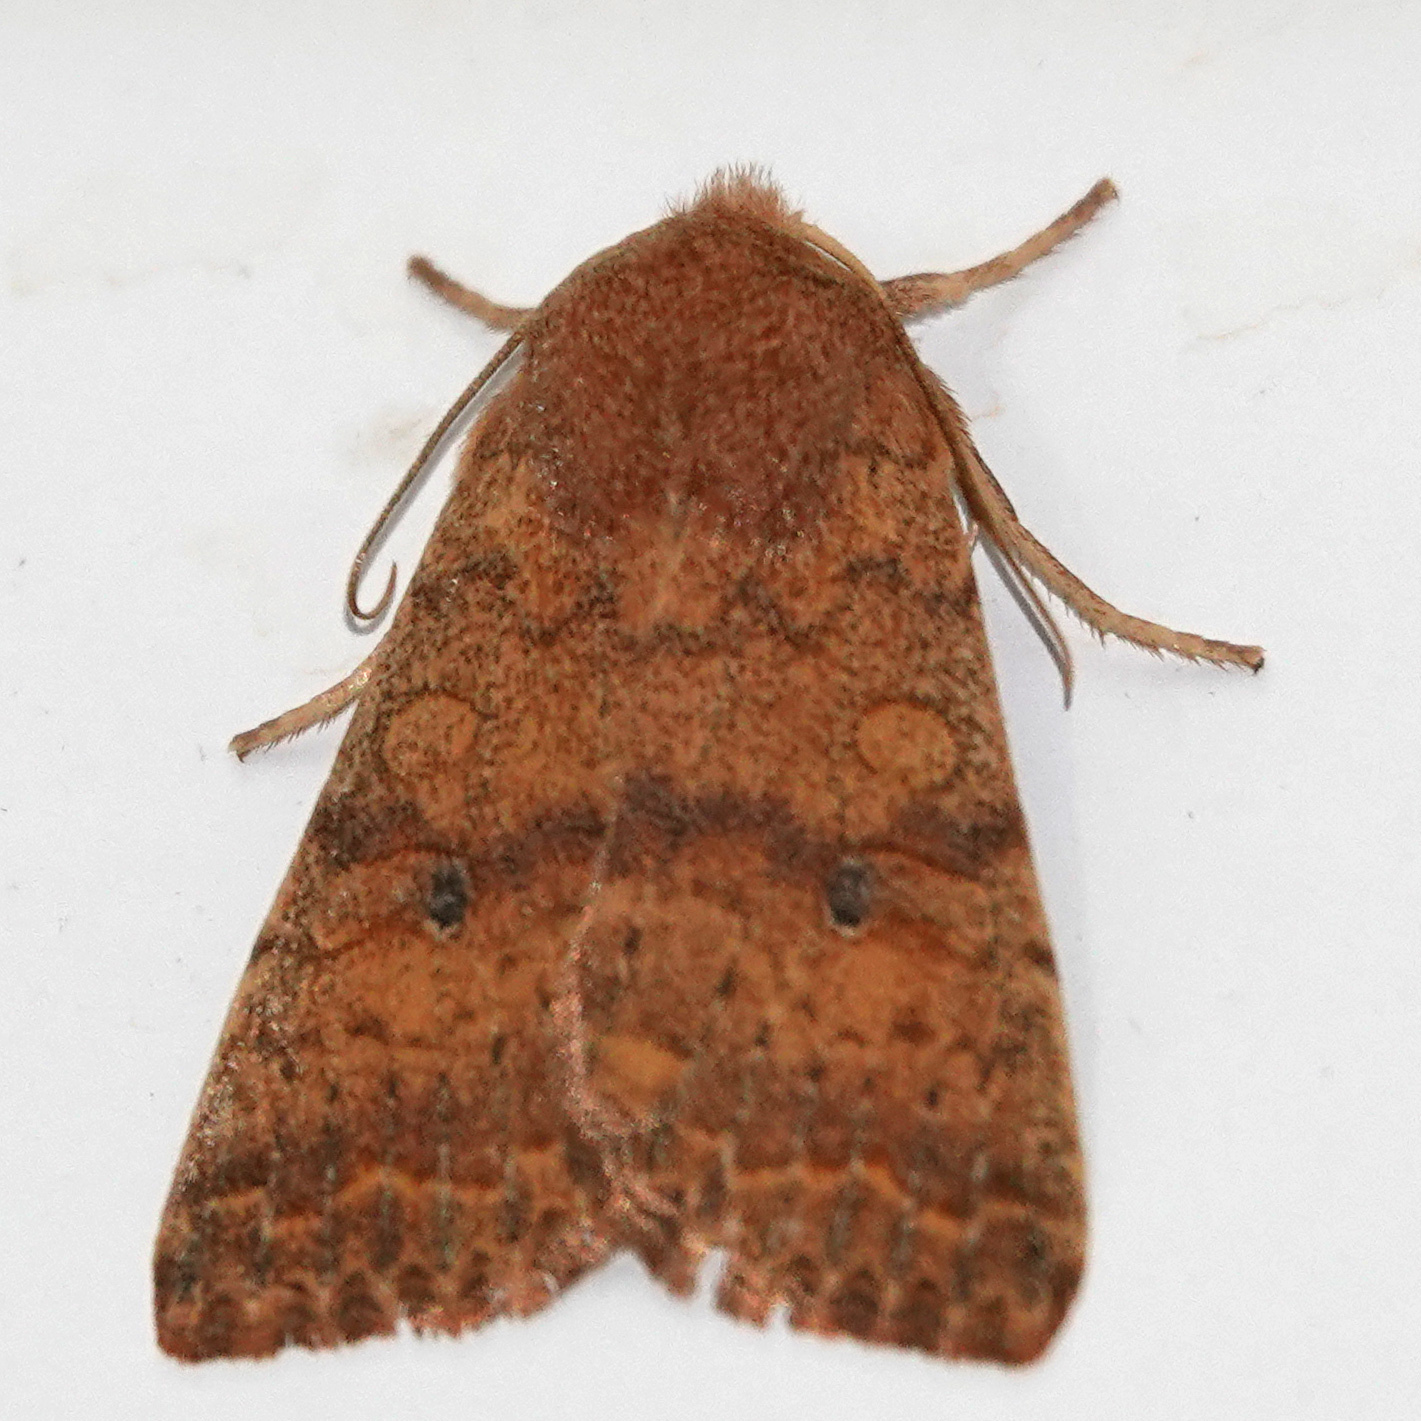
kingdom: Animalia
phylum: Arthropoda
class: Insecta
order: Lepidoptera
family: Noctuidae
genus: Agrochola
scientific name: Agrochola bicolorago
